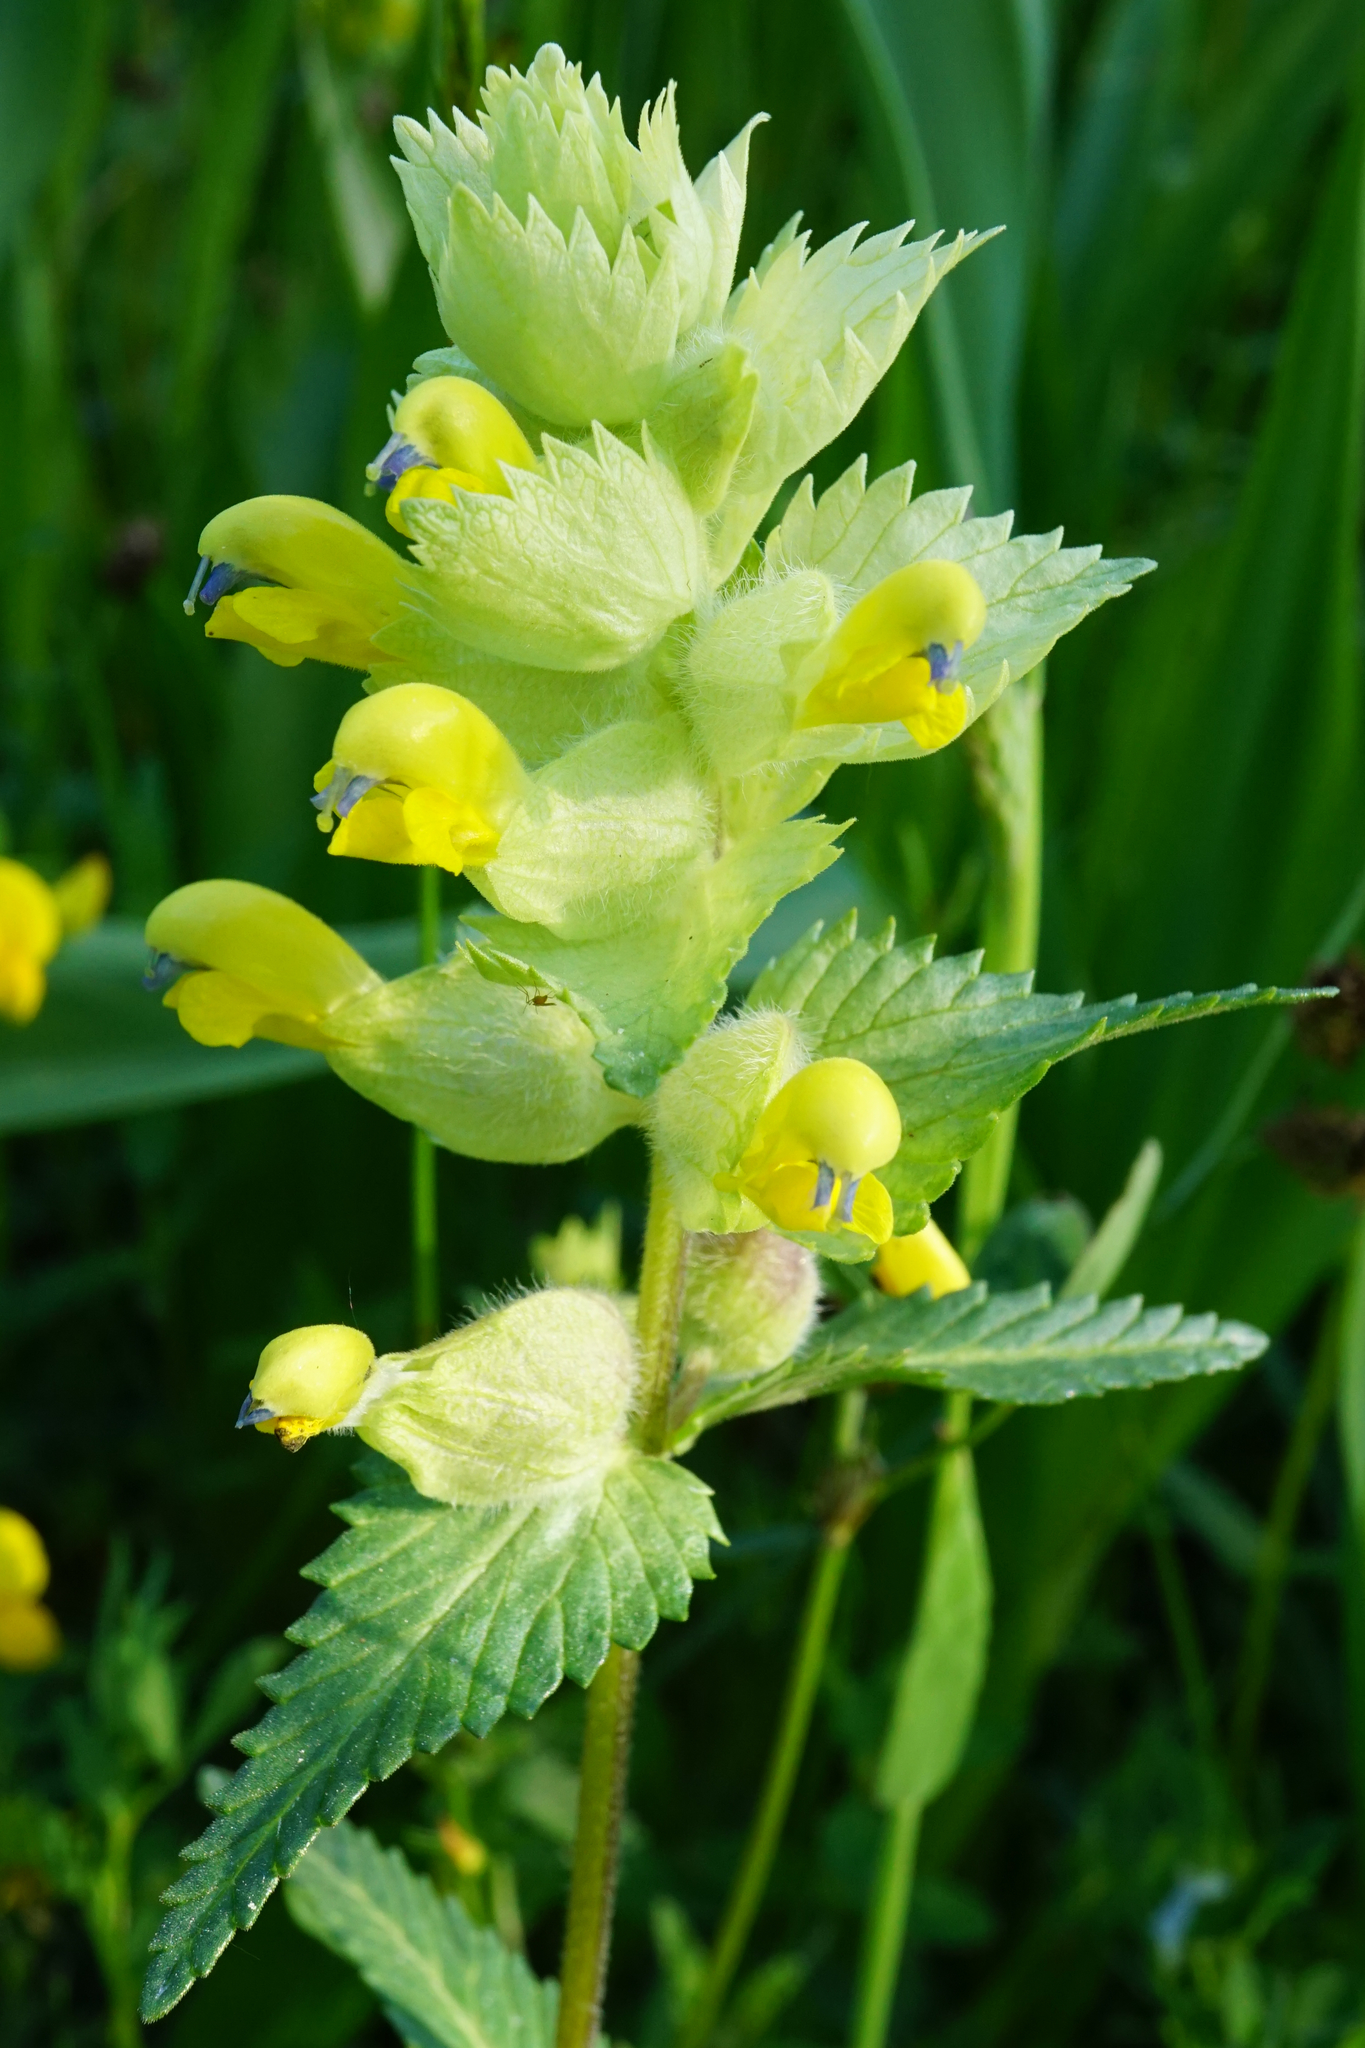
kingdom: Plantae
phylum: Tracheophyta
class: Magnoliopsida
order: Lamiales
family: Orobanchaceae
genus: Rhinanthus
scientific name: Rhinanthus alectorolophus
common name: Greater yellow-rattle
